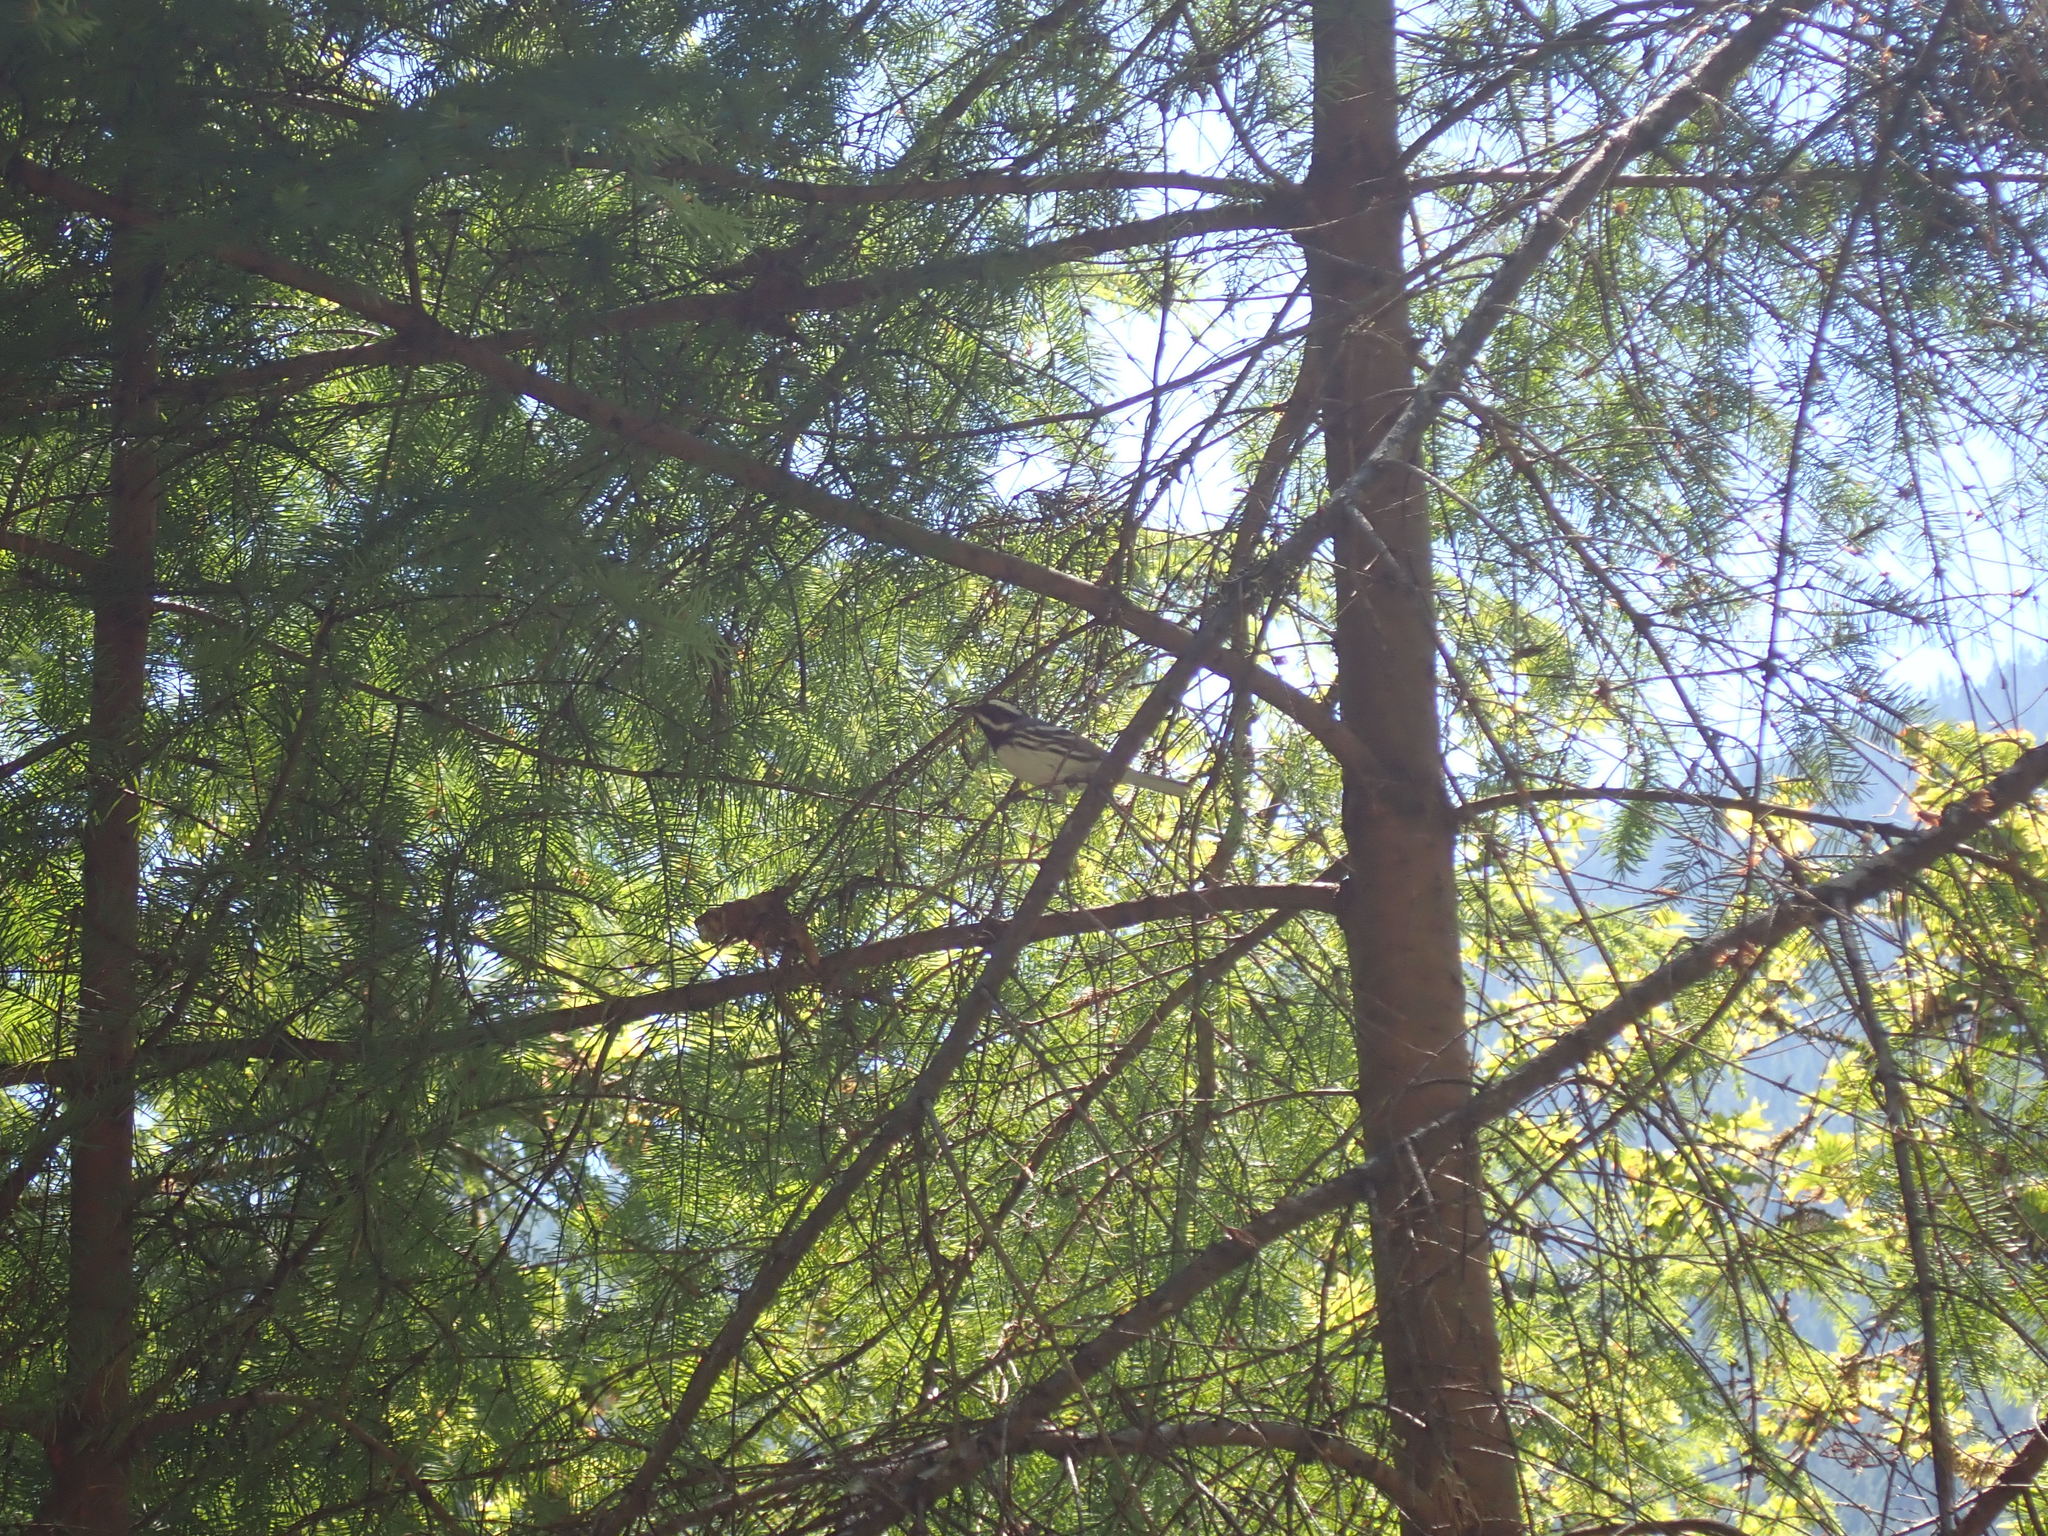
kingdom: Animalia
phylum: Chordata
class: Aves
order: Passeriformes
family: Parulidae
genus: Setophaga
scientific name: Setophaga nigrescens
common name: Black-throated gray warbler
